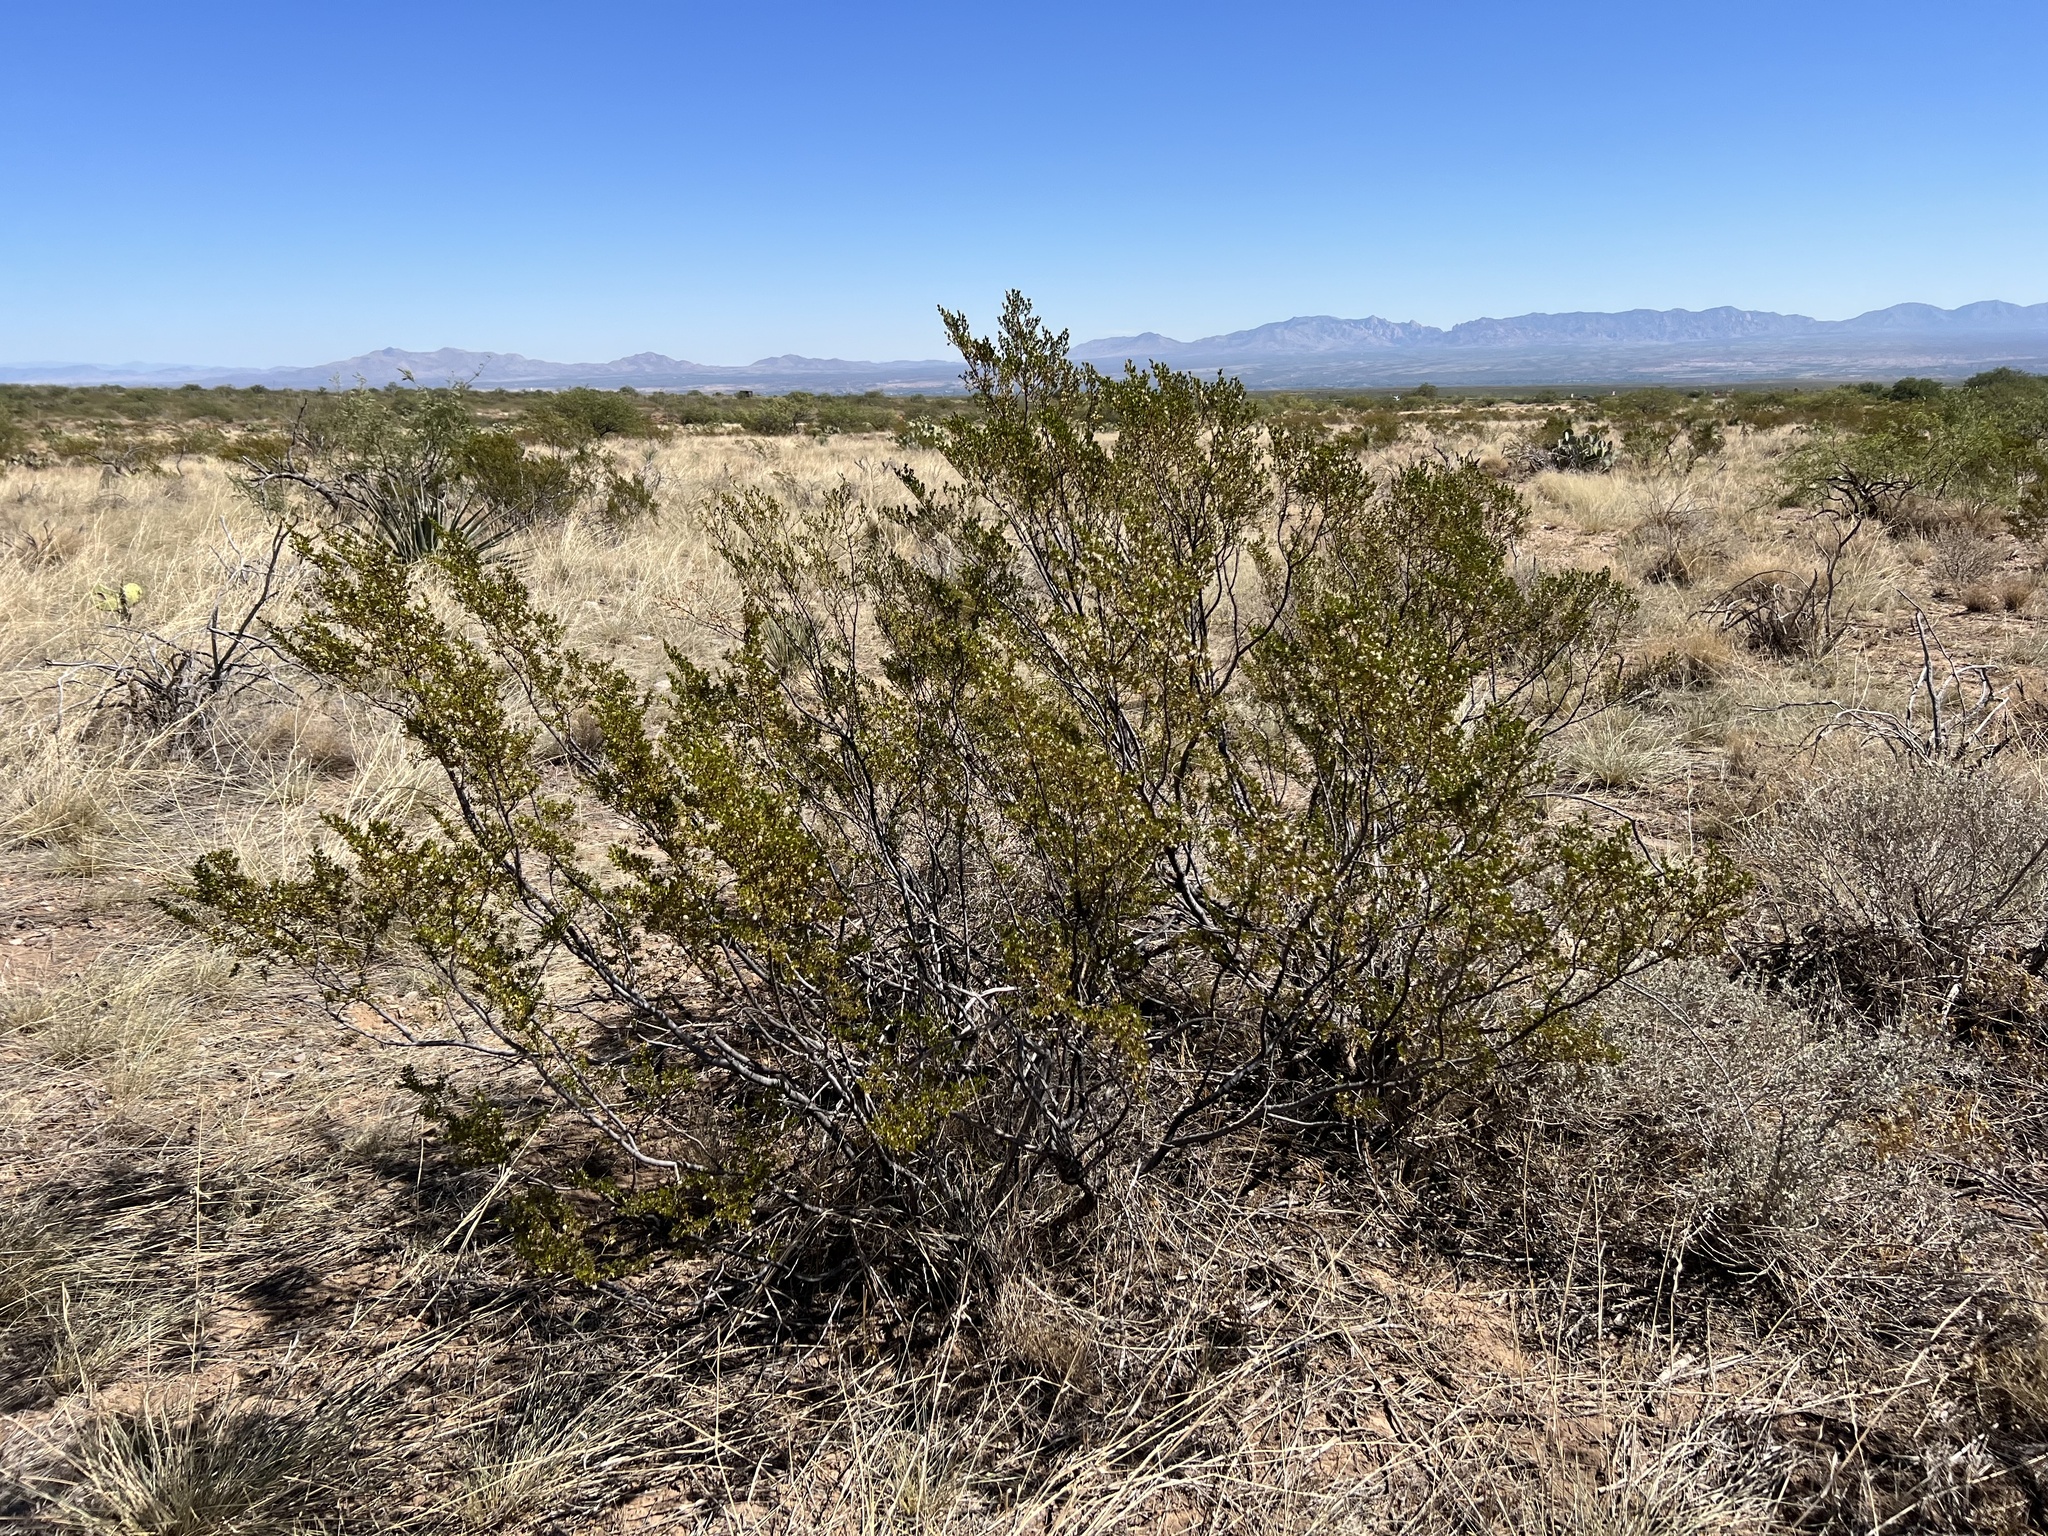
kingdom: Plantae
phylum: Tracheophyta
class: Magnoliopsida
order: Zygophyllales
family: Zygophyllaceae
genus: Larrea
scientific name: Larrea tridentata
